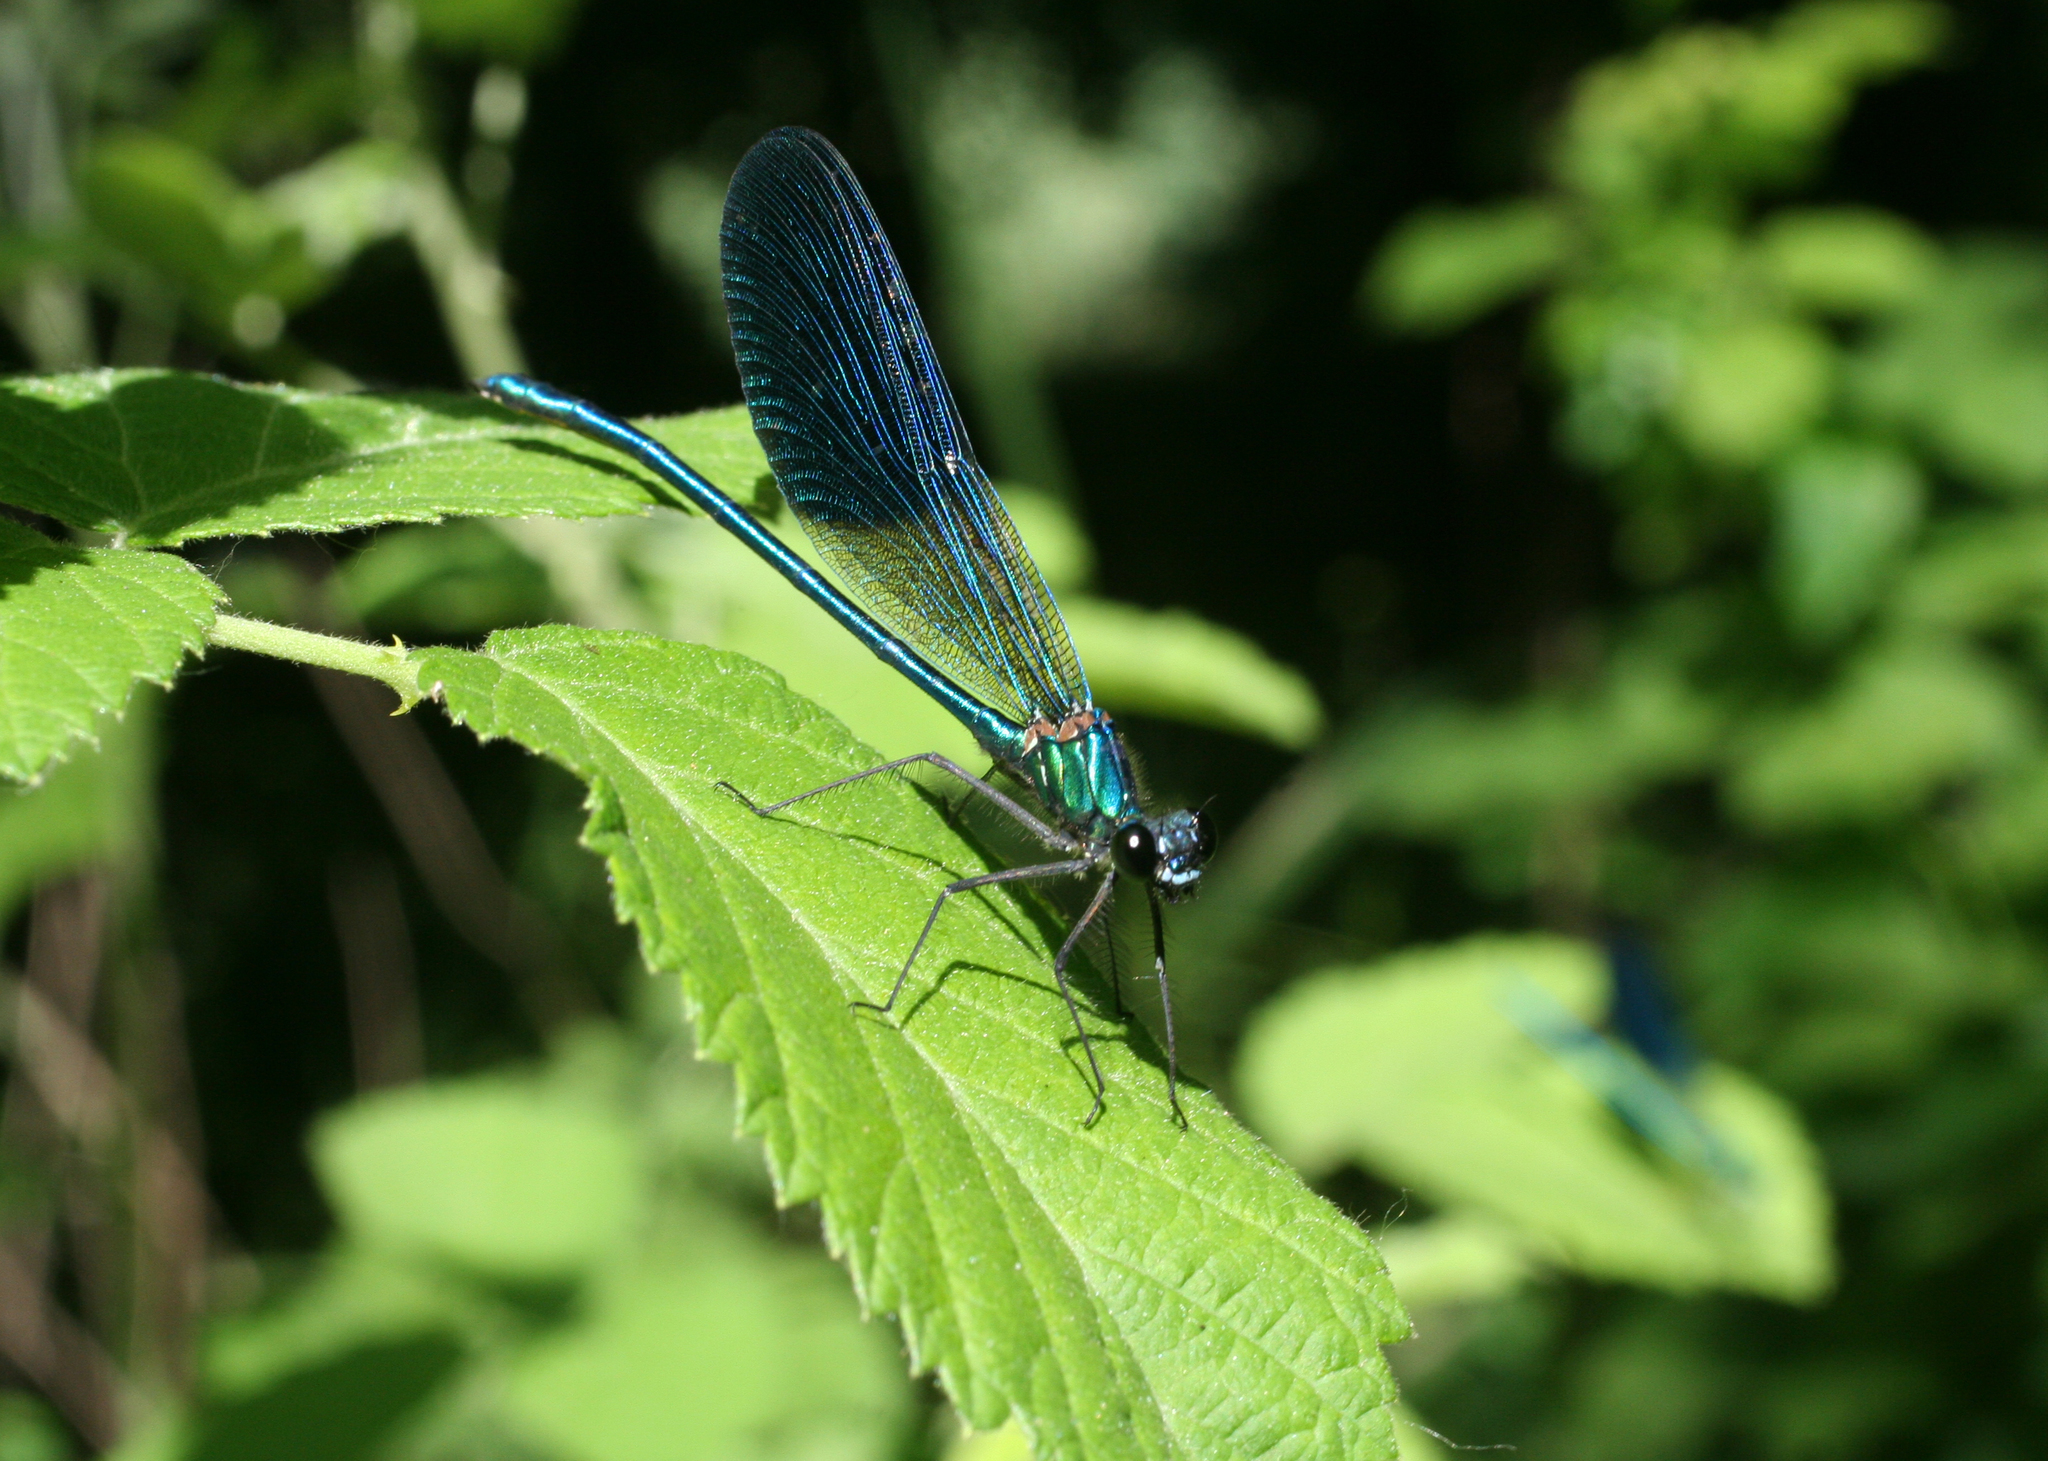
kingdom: Animalia
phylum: Arthropoda
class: Insecta
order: Odonata
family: Calopterygidae
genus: Calopteryx
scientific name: Calopteryx splendens
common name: Banded demoiselle
